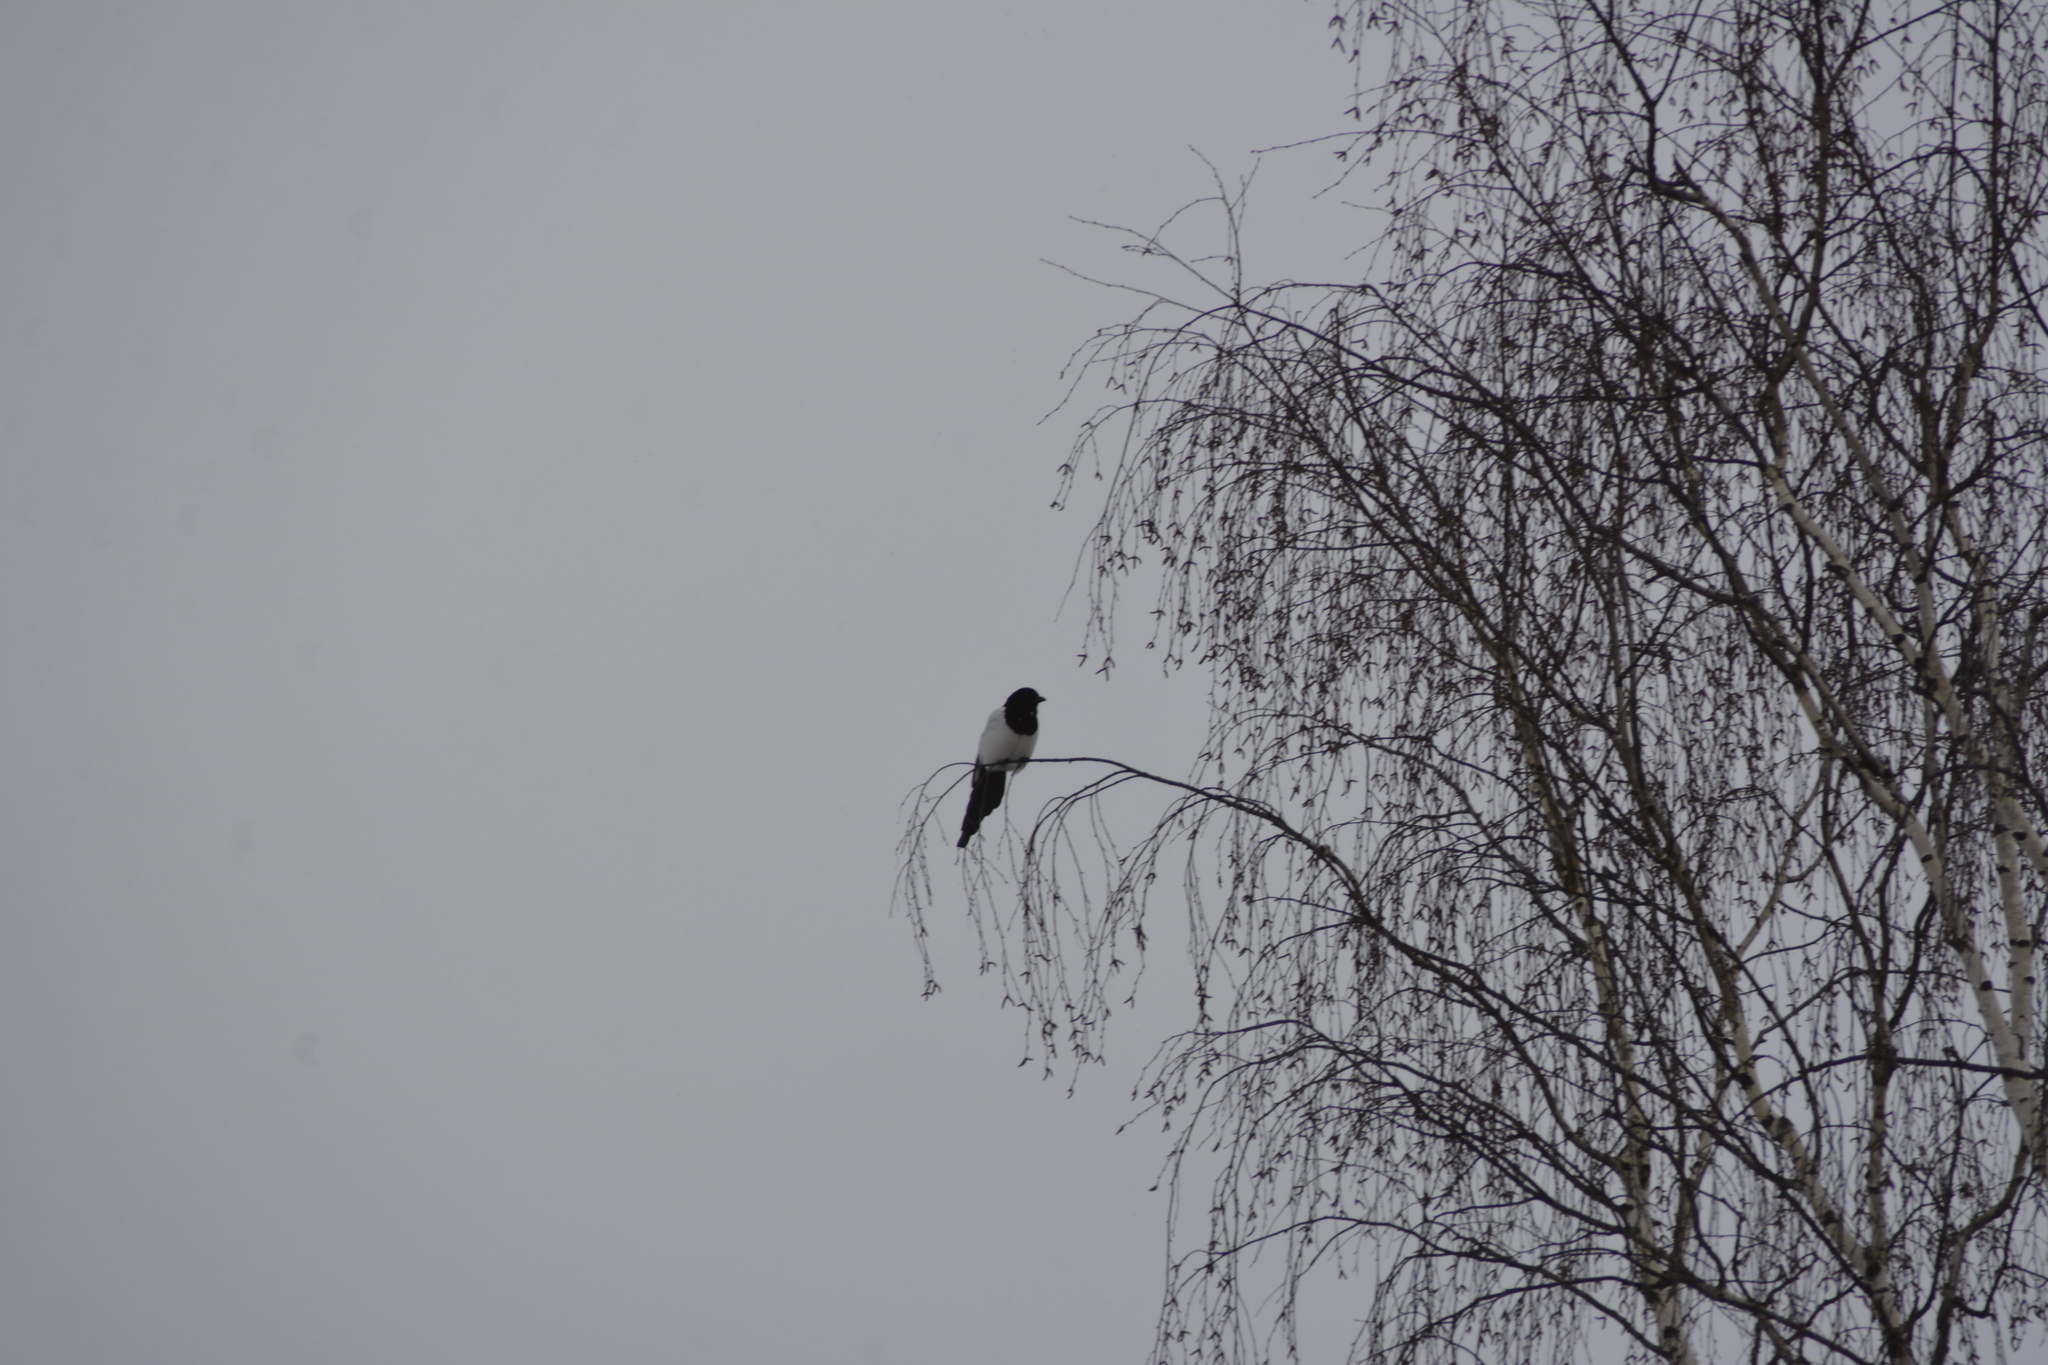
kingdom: Animalia
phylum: Chordata
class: Aves
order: Passeriformes
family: Corvidae
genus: Pica
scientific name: Pica pica
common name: Eurasian magpie
